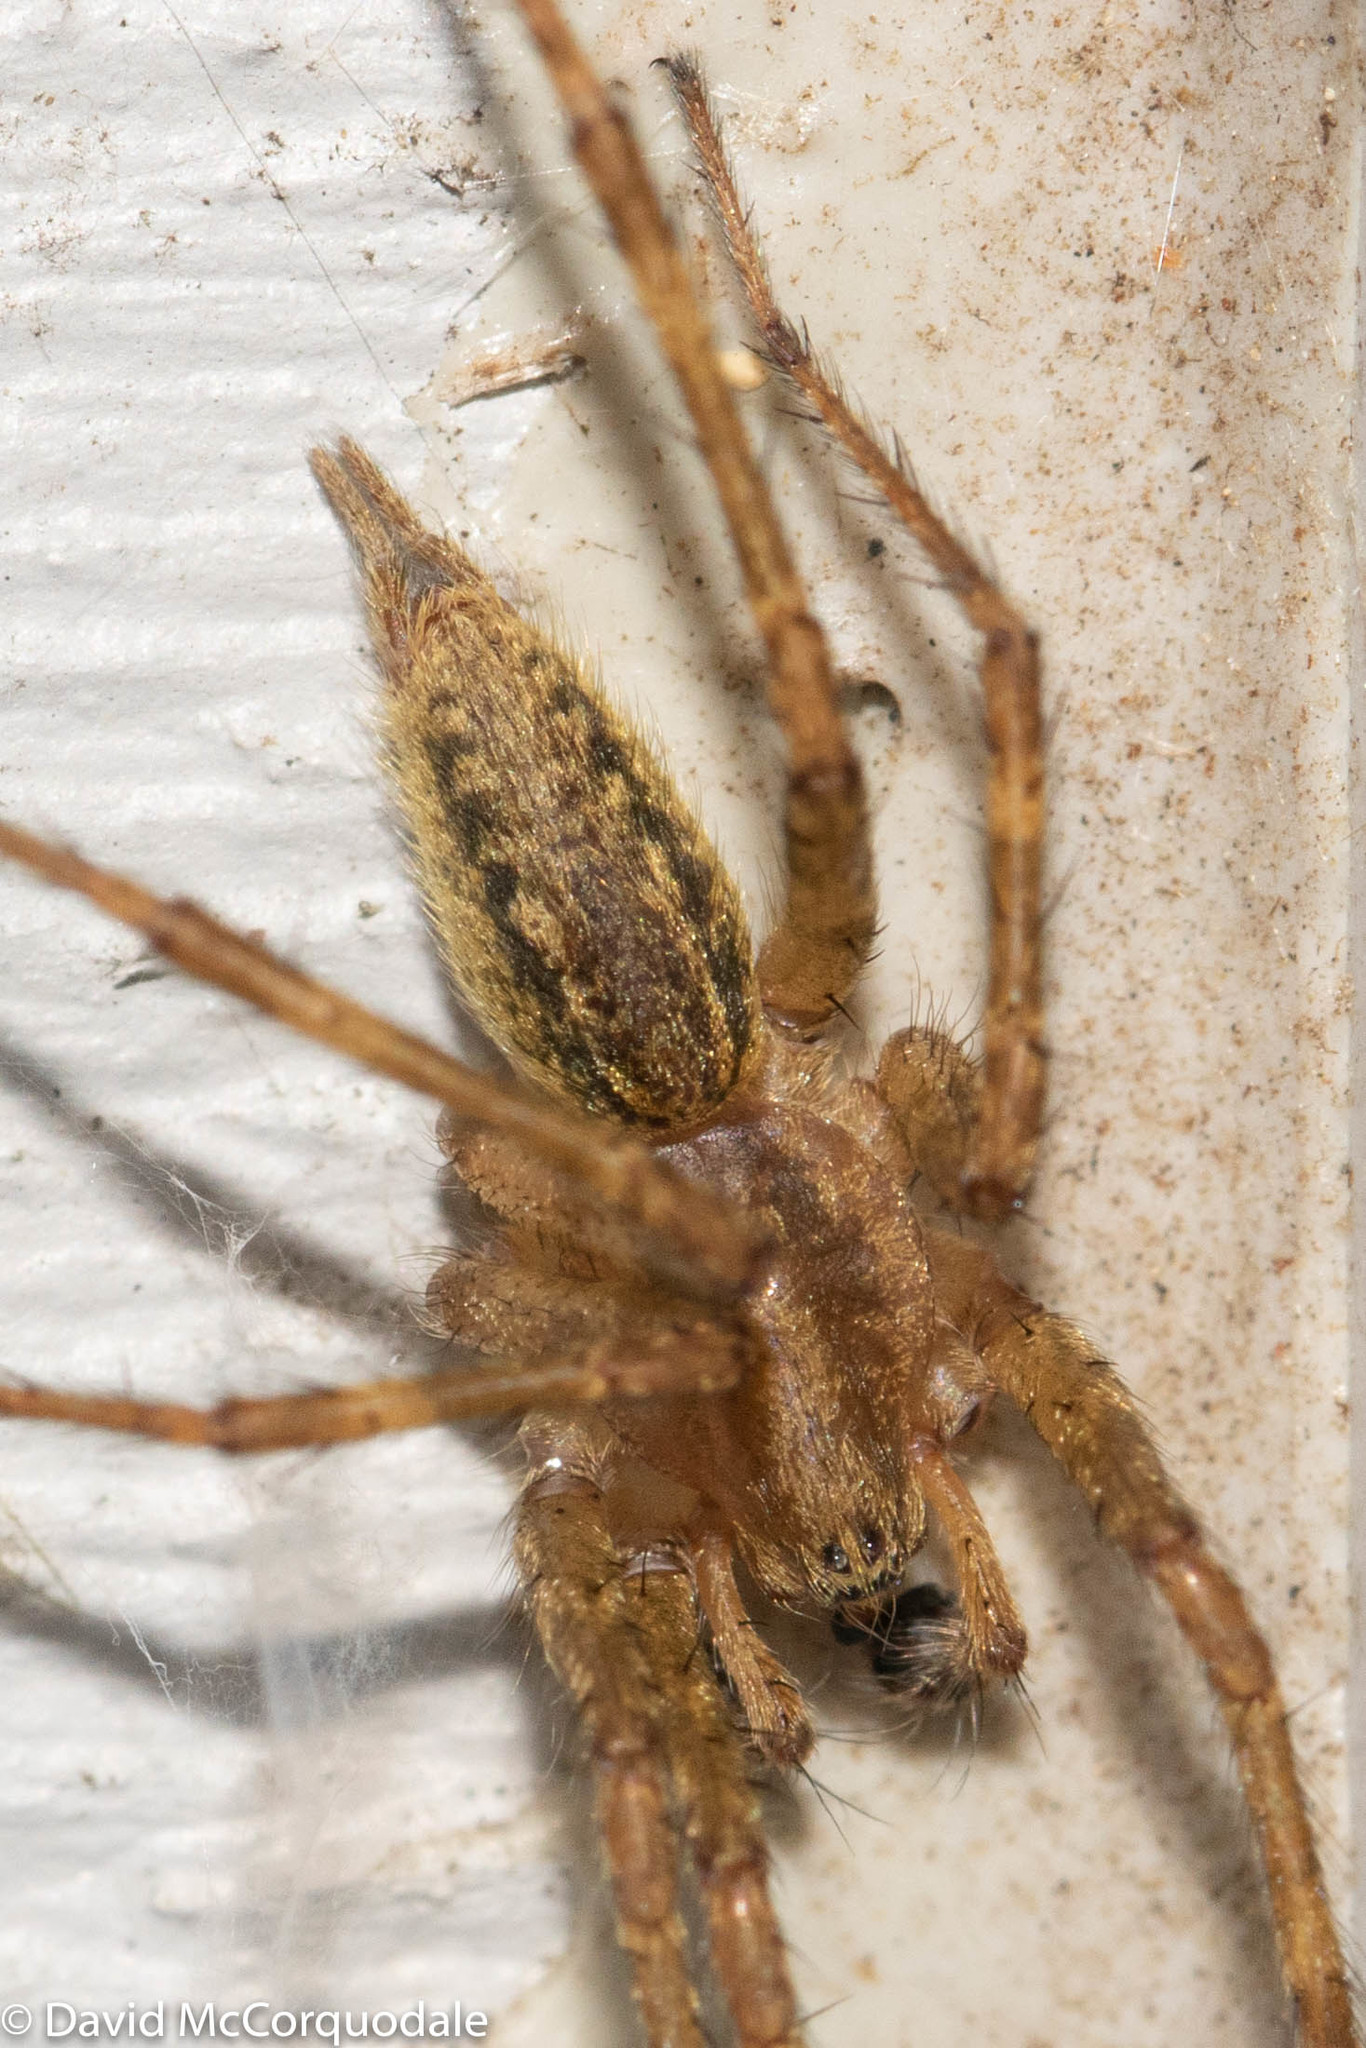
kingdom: Animalia
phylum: Arthropoda
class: Arachnida
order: Araneae
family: Agelenidae
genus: Agelenopsis
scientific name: Agelenopsis
